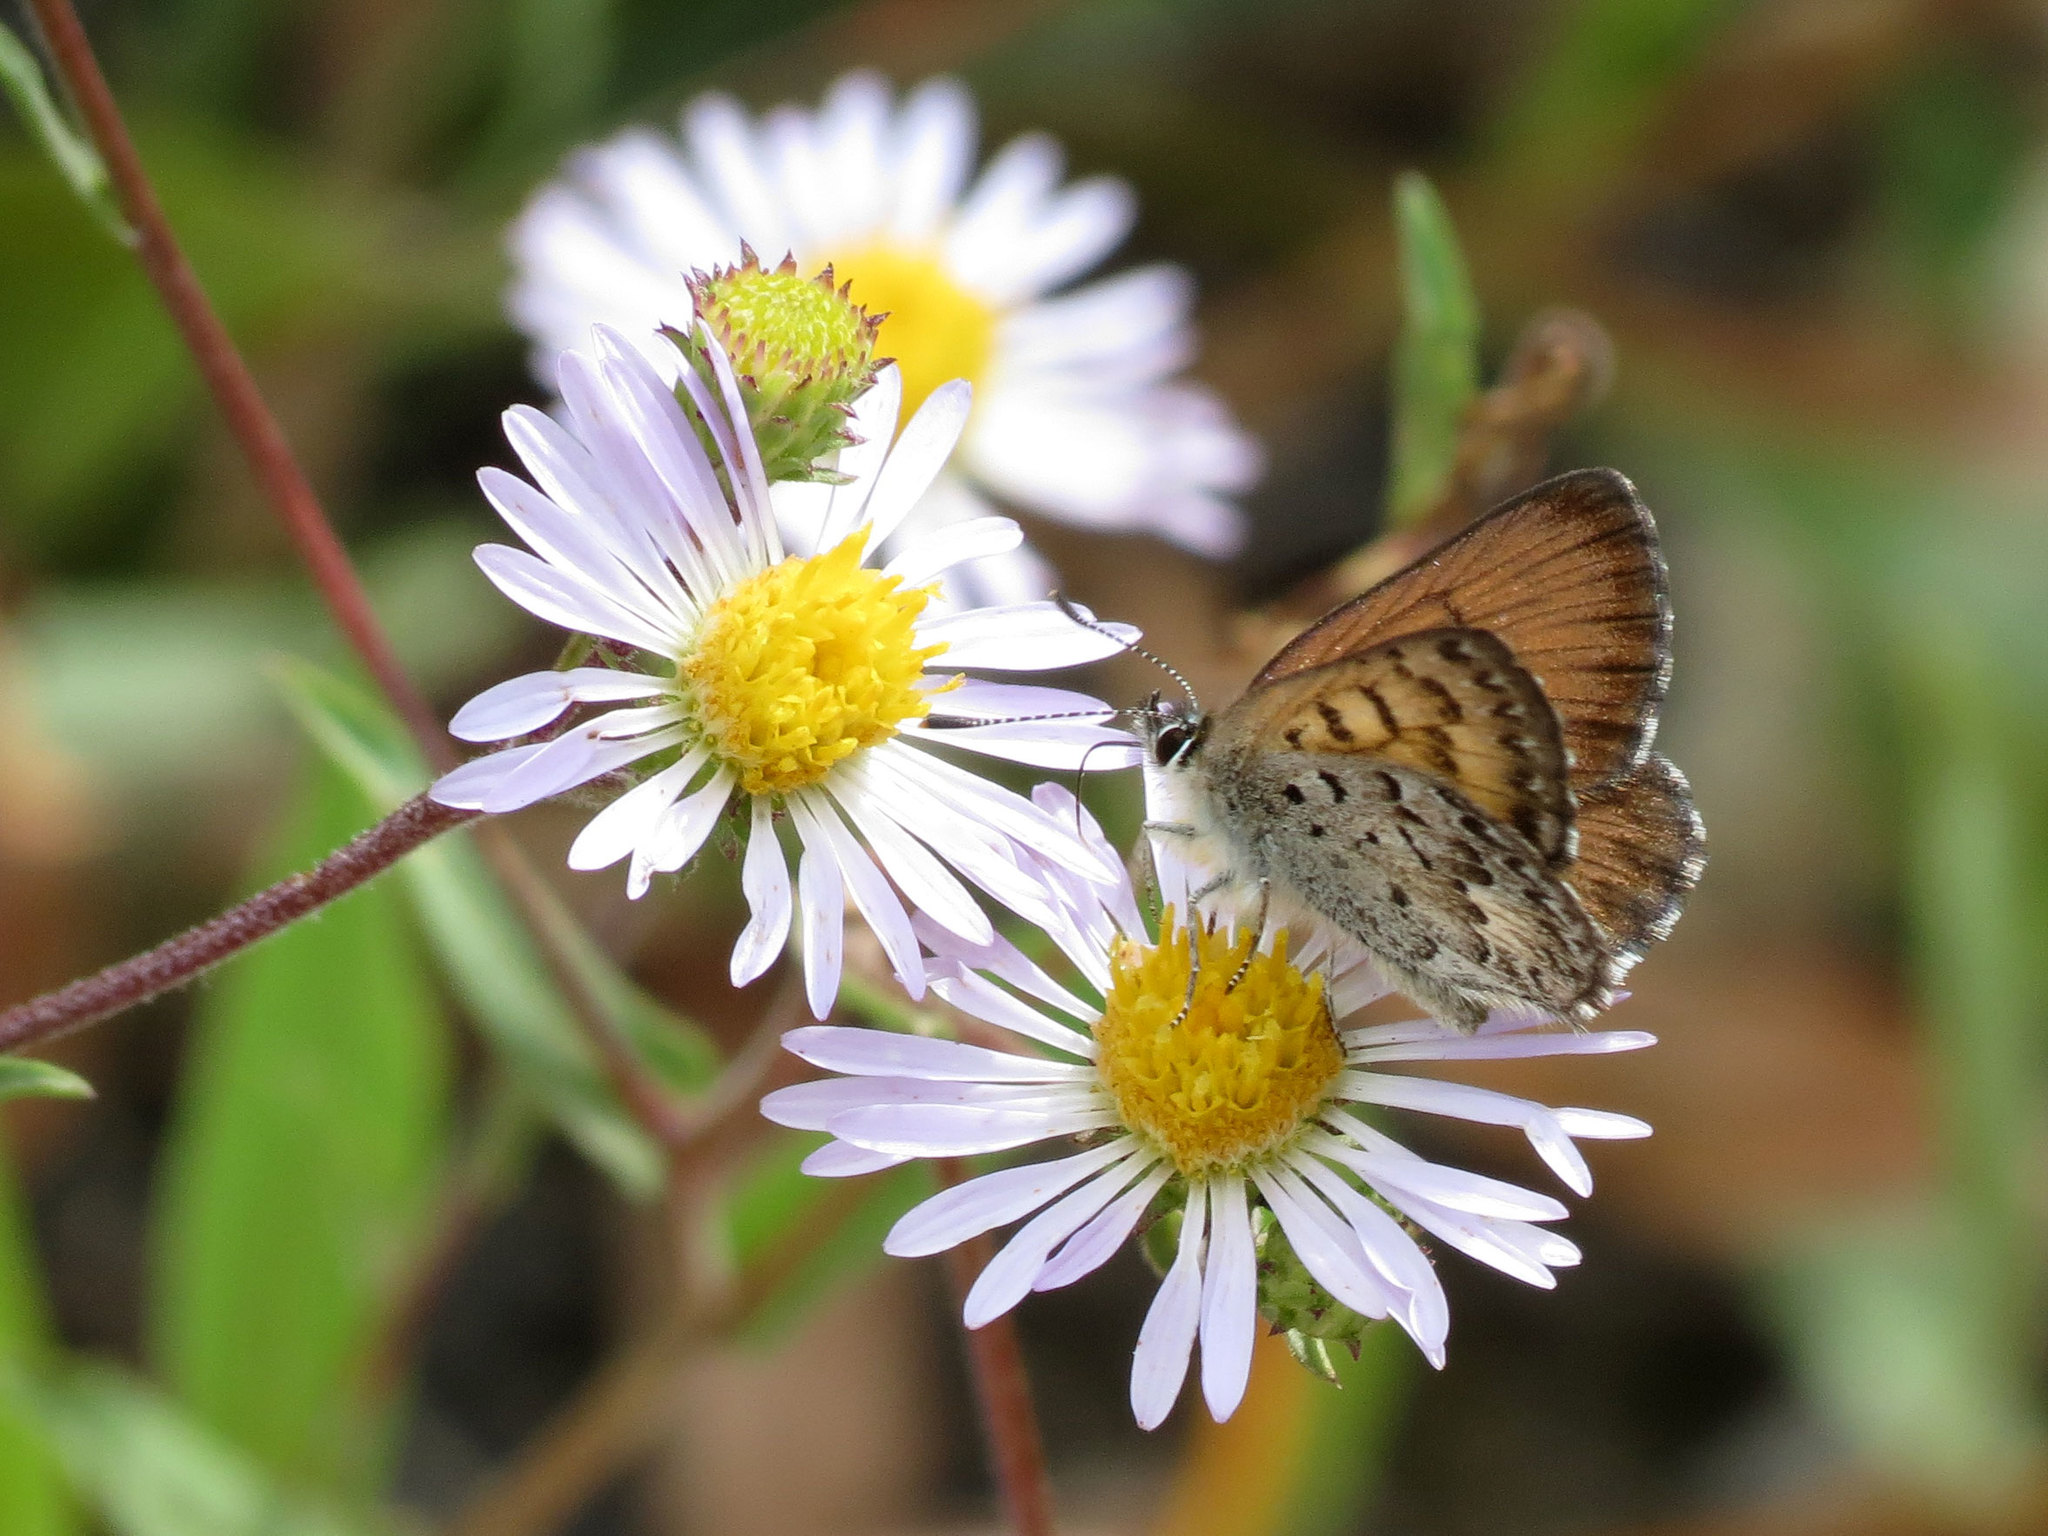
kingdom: Animalia
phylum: Arthropoda
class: Insecta
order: Lepidoptera
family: Lycaenidae
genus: Tharsalea
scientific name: Tharsalea mariposa
